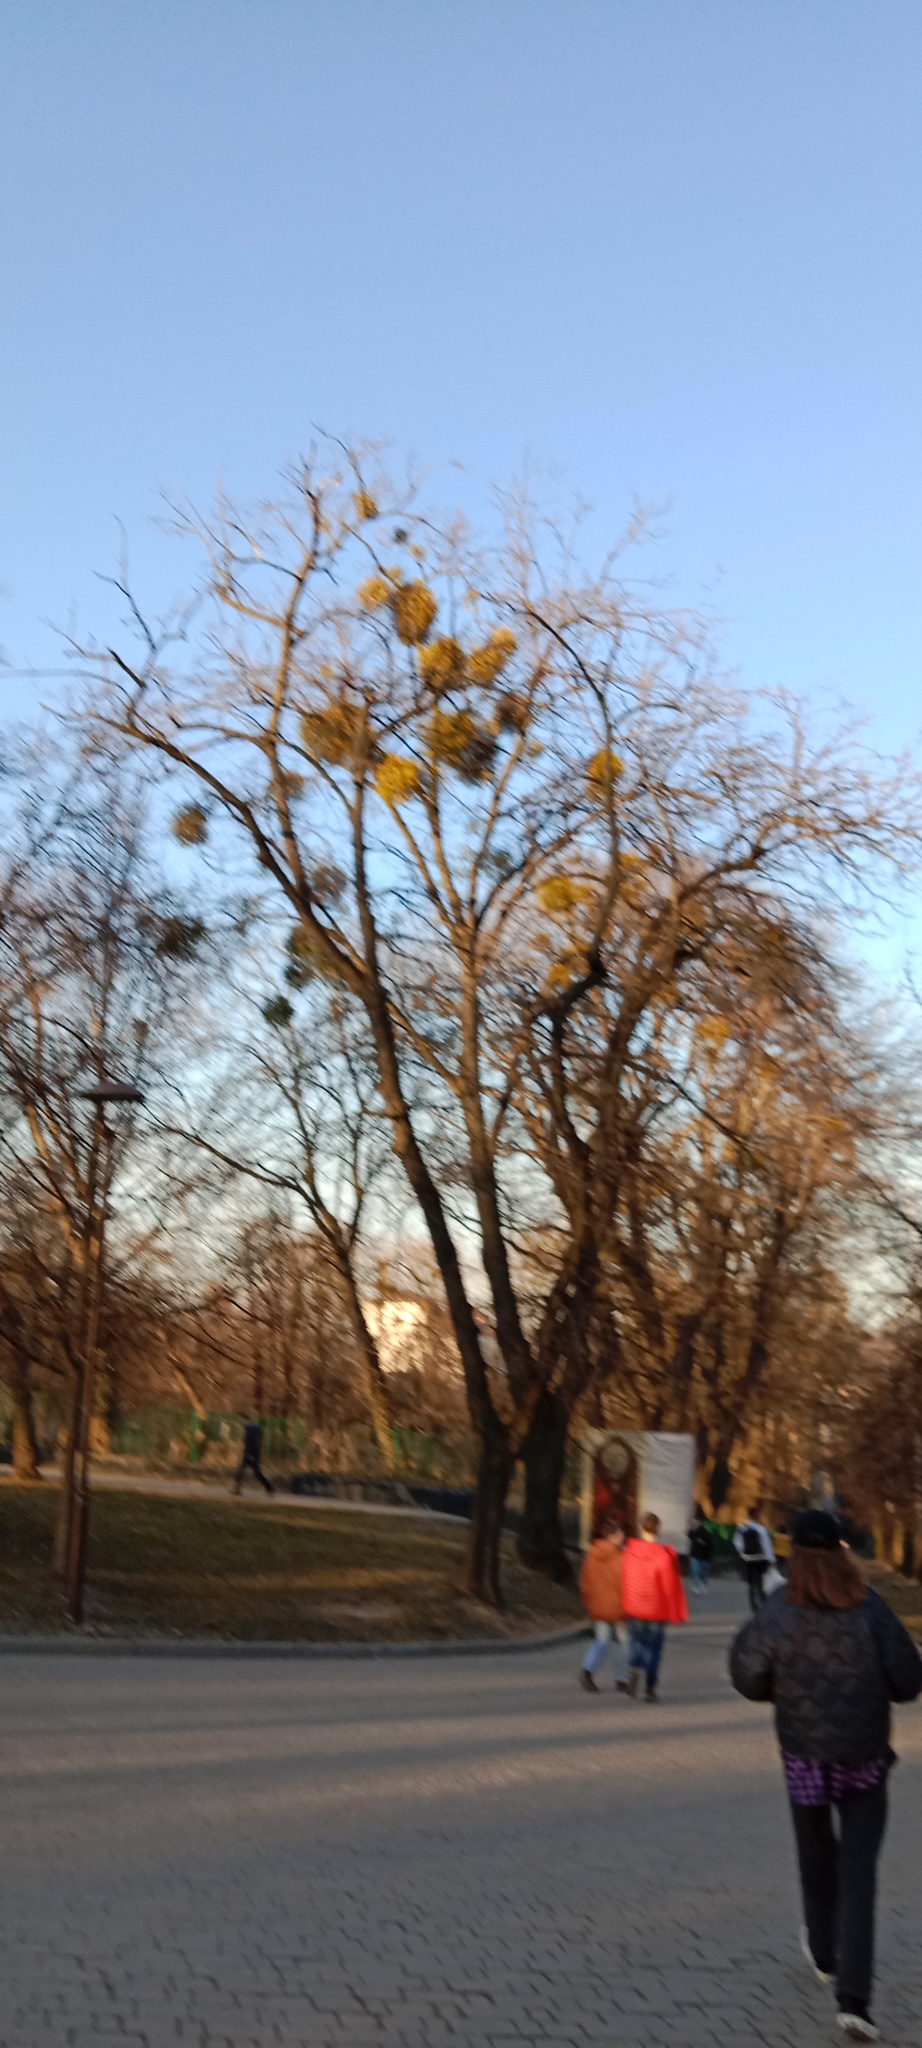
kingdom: Plantae
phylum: Tracheophyta
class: Magnoliopsida
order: Santalales
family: Viscaceae
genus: Viscum
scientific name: Viscum album
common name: Mistletoe
